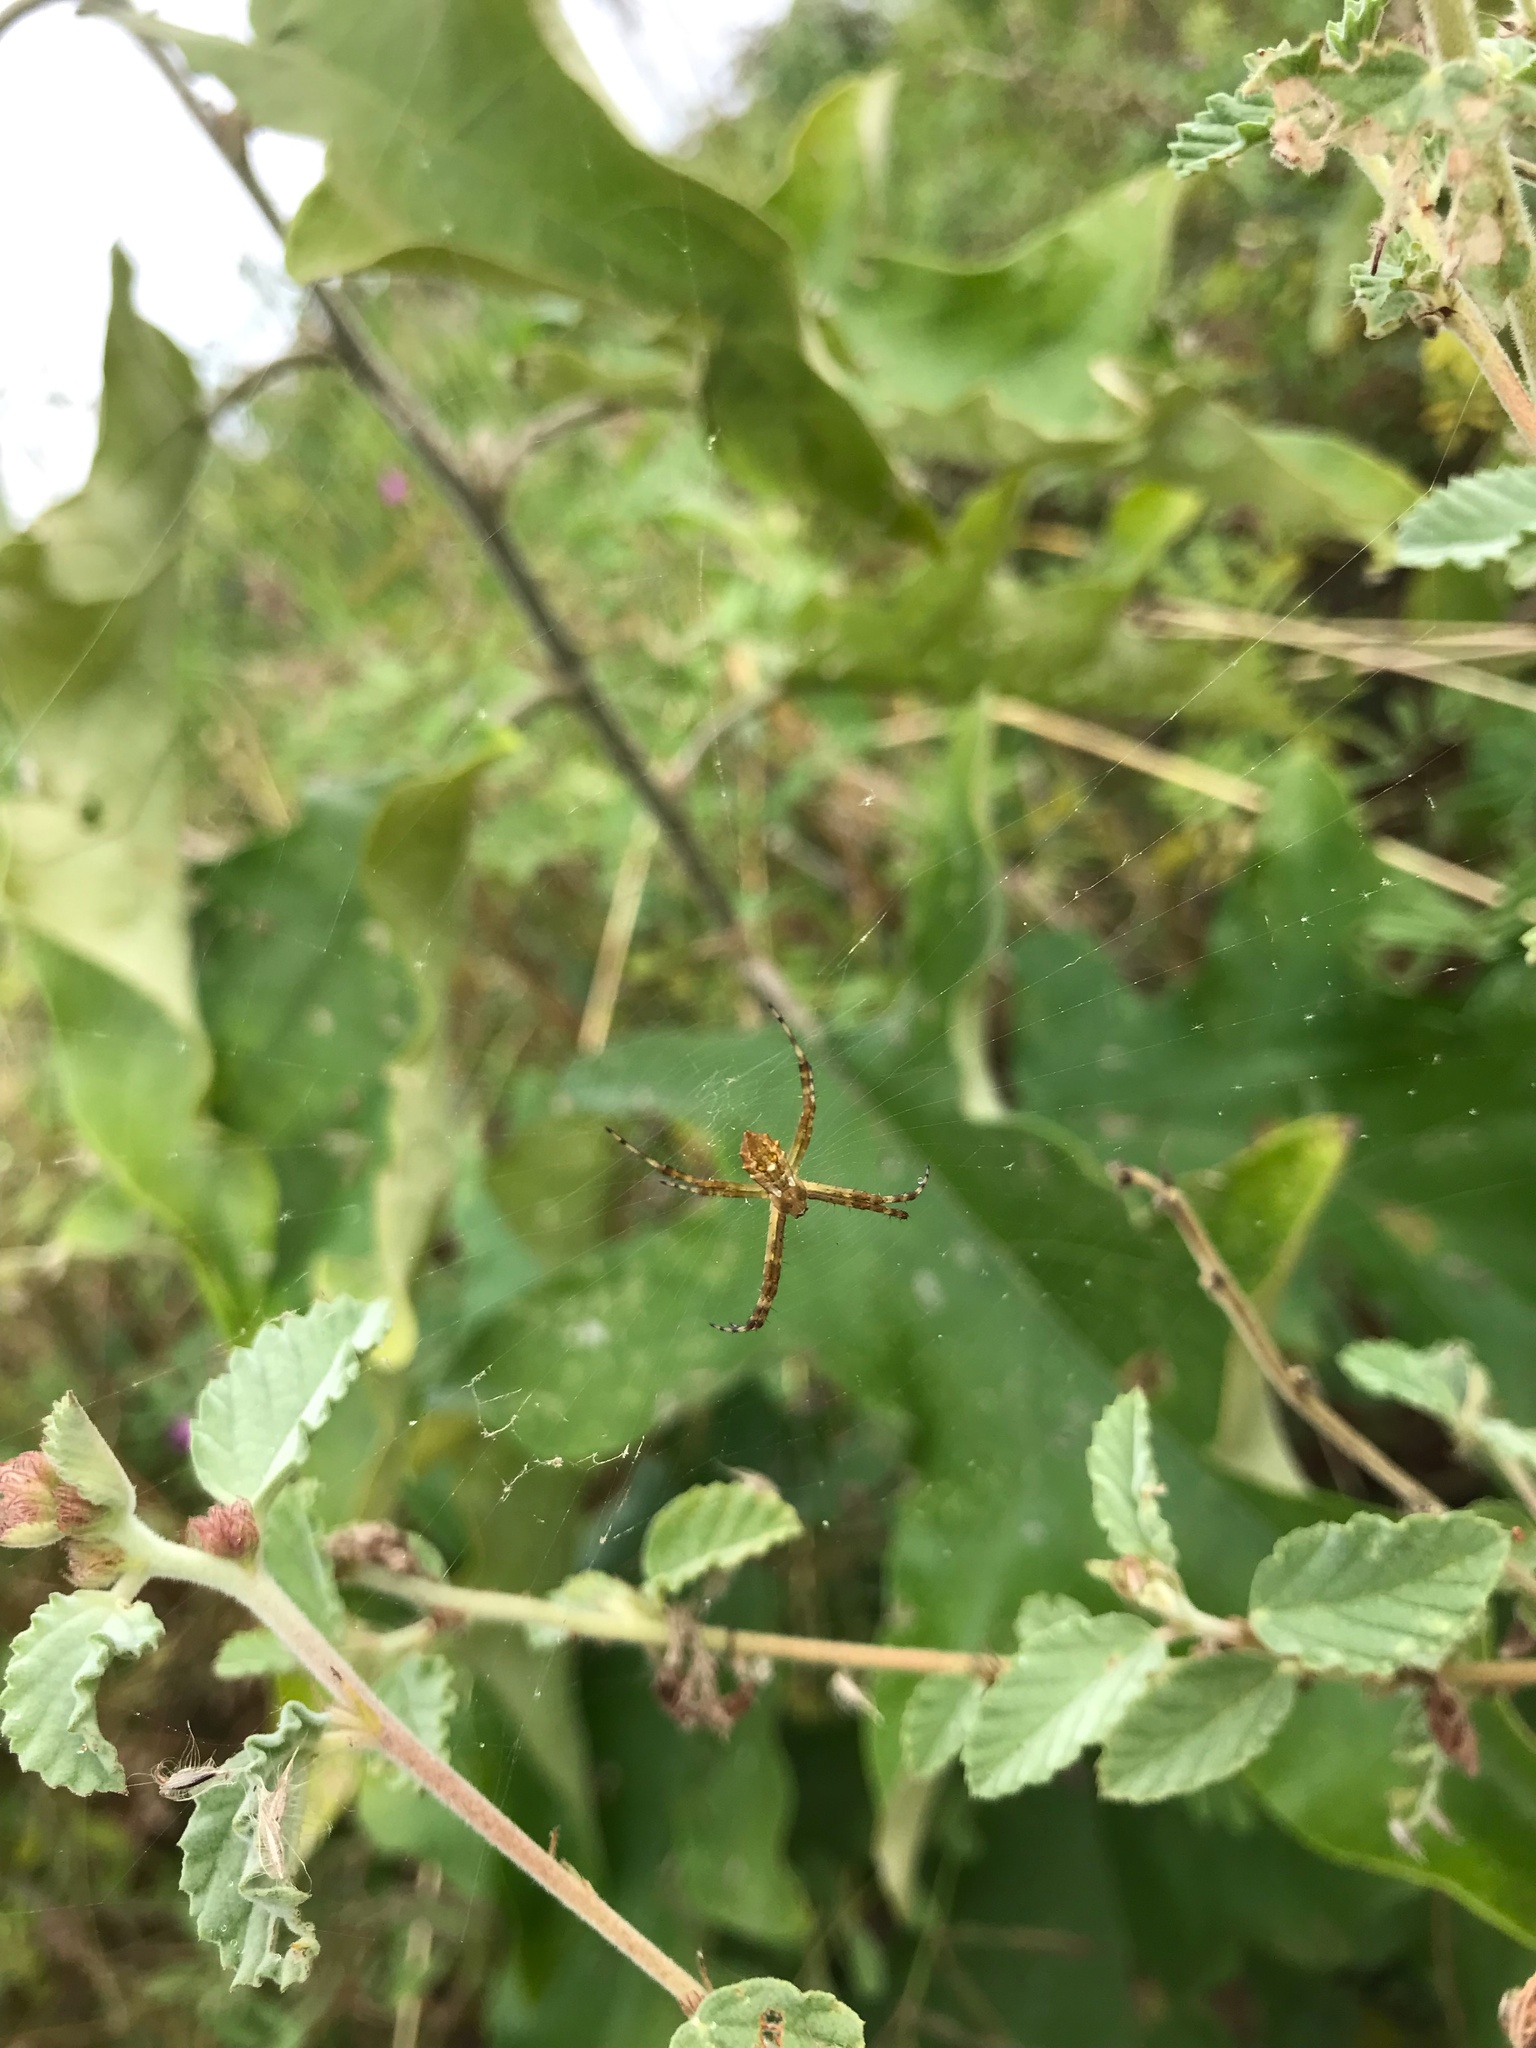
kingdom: Animalia
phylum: Arthropoda
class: Arachnida
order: Araneae
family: Araneidae
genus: Argiope
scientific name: Argiope argentata
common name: Orb weavers
